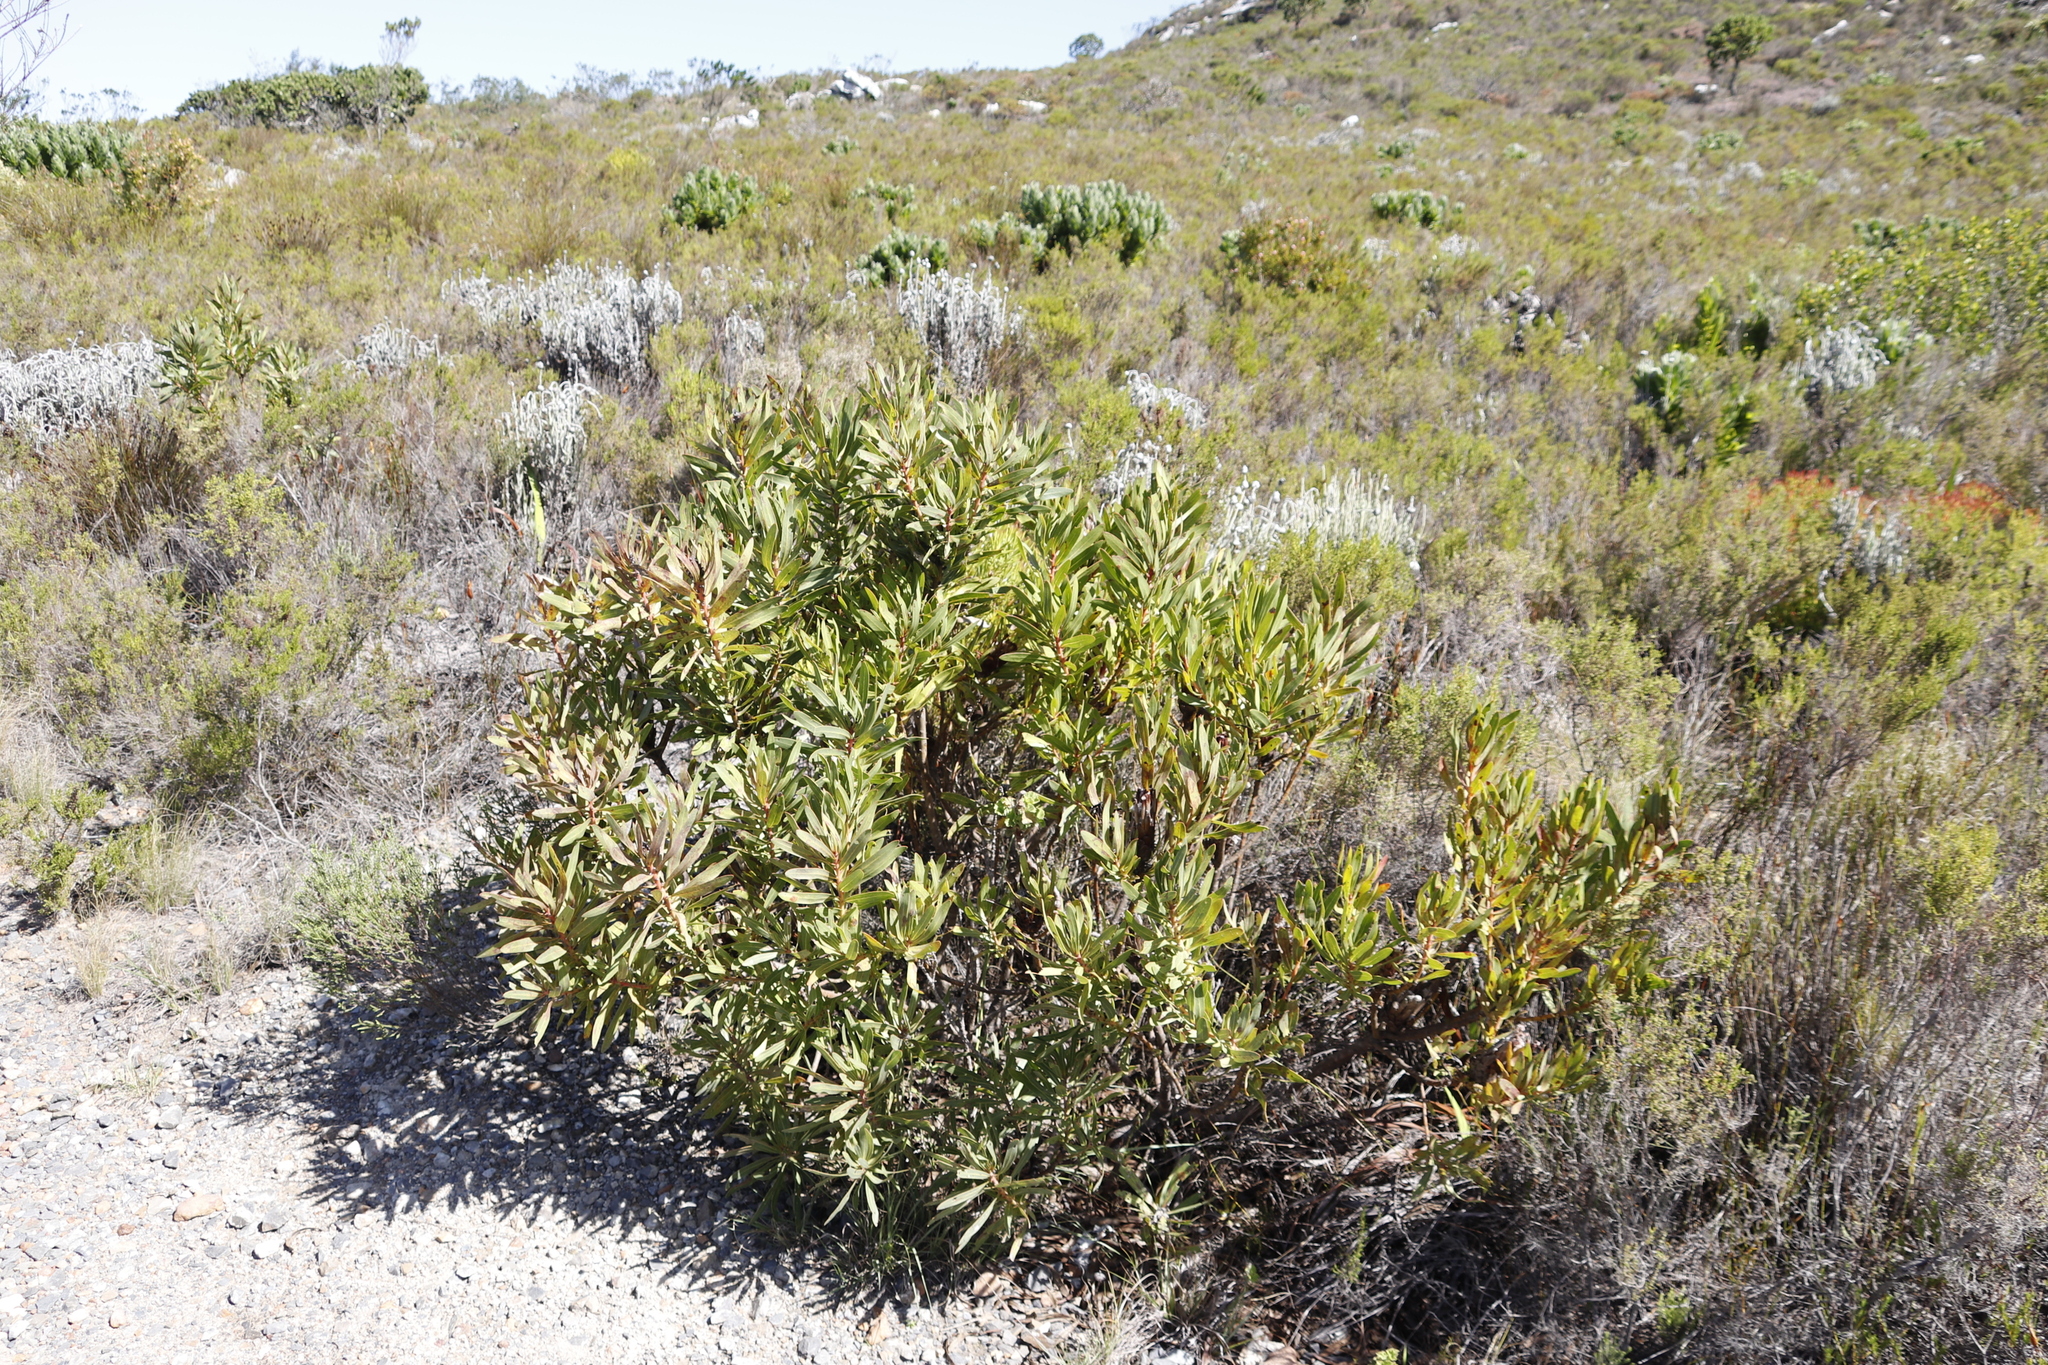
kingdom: Plantae
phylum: Tracheophyta
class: Magnoliopsida
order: Proteales
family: Proteaceae
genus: Protea
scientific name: Protea lepidocarpodendron
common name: Black-bearded protea
